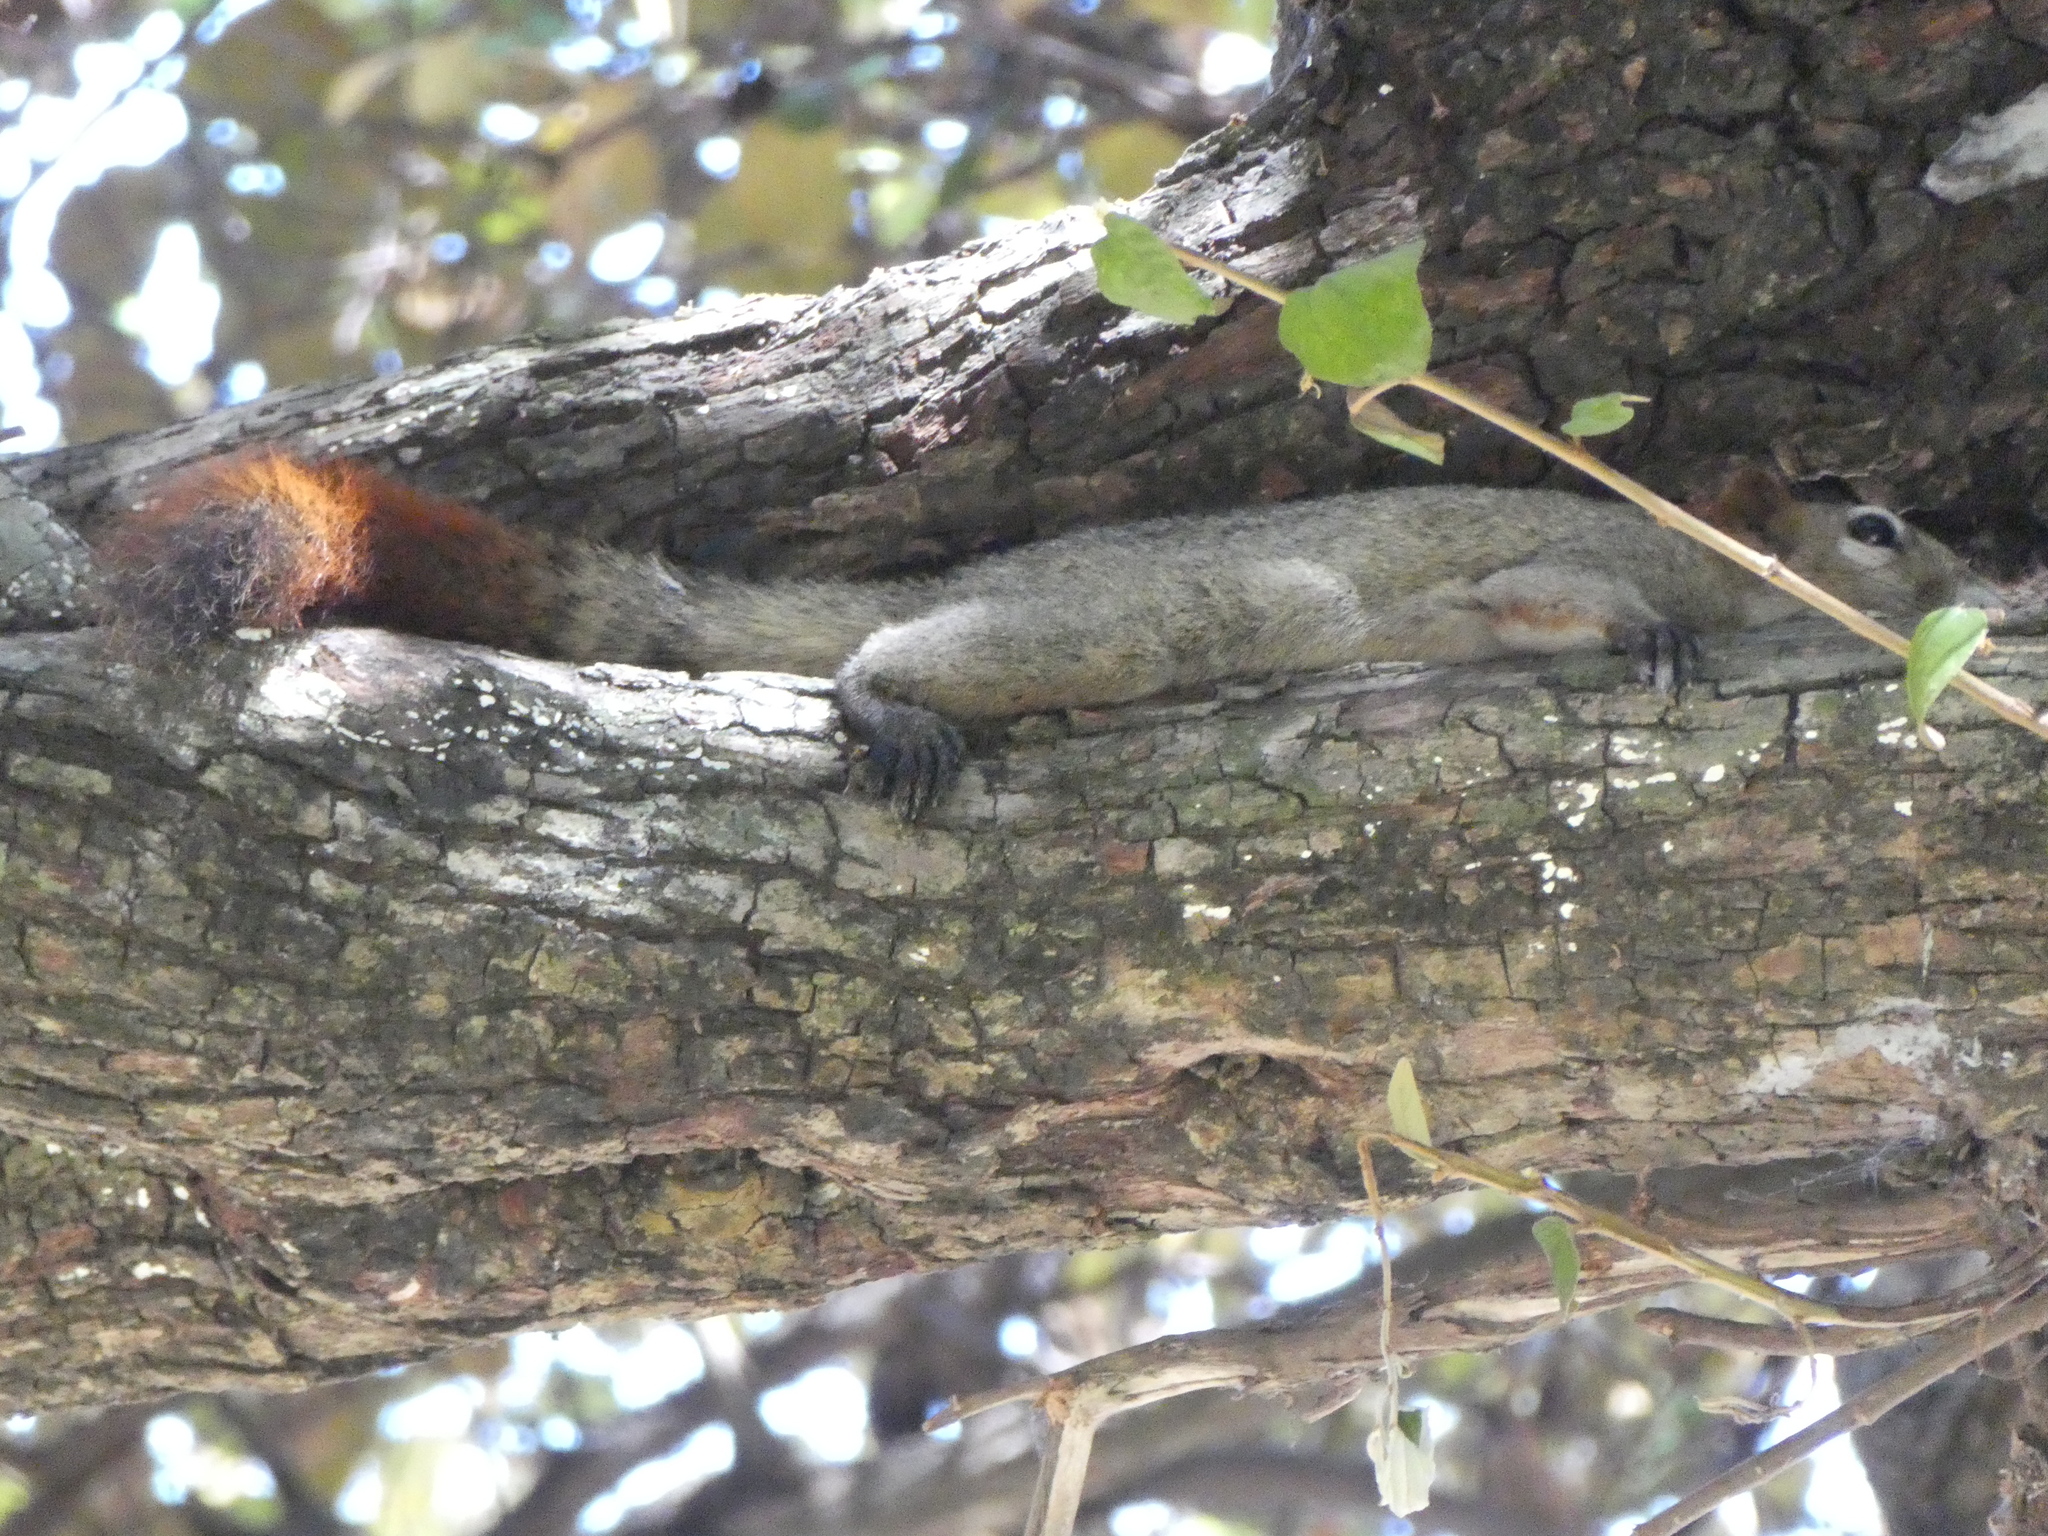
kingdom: Animalia
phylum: Chordata
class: Mammalia
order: Rodentia
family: Sciuridae
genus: Callosciurus
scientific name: Callosciurus finlaysonii
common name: Finlayson's squirrel
